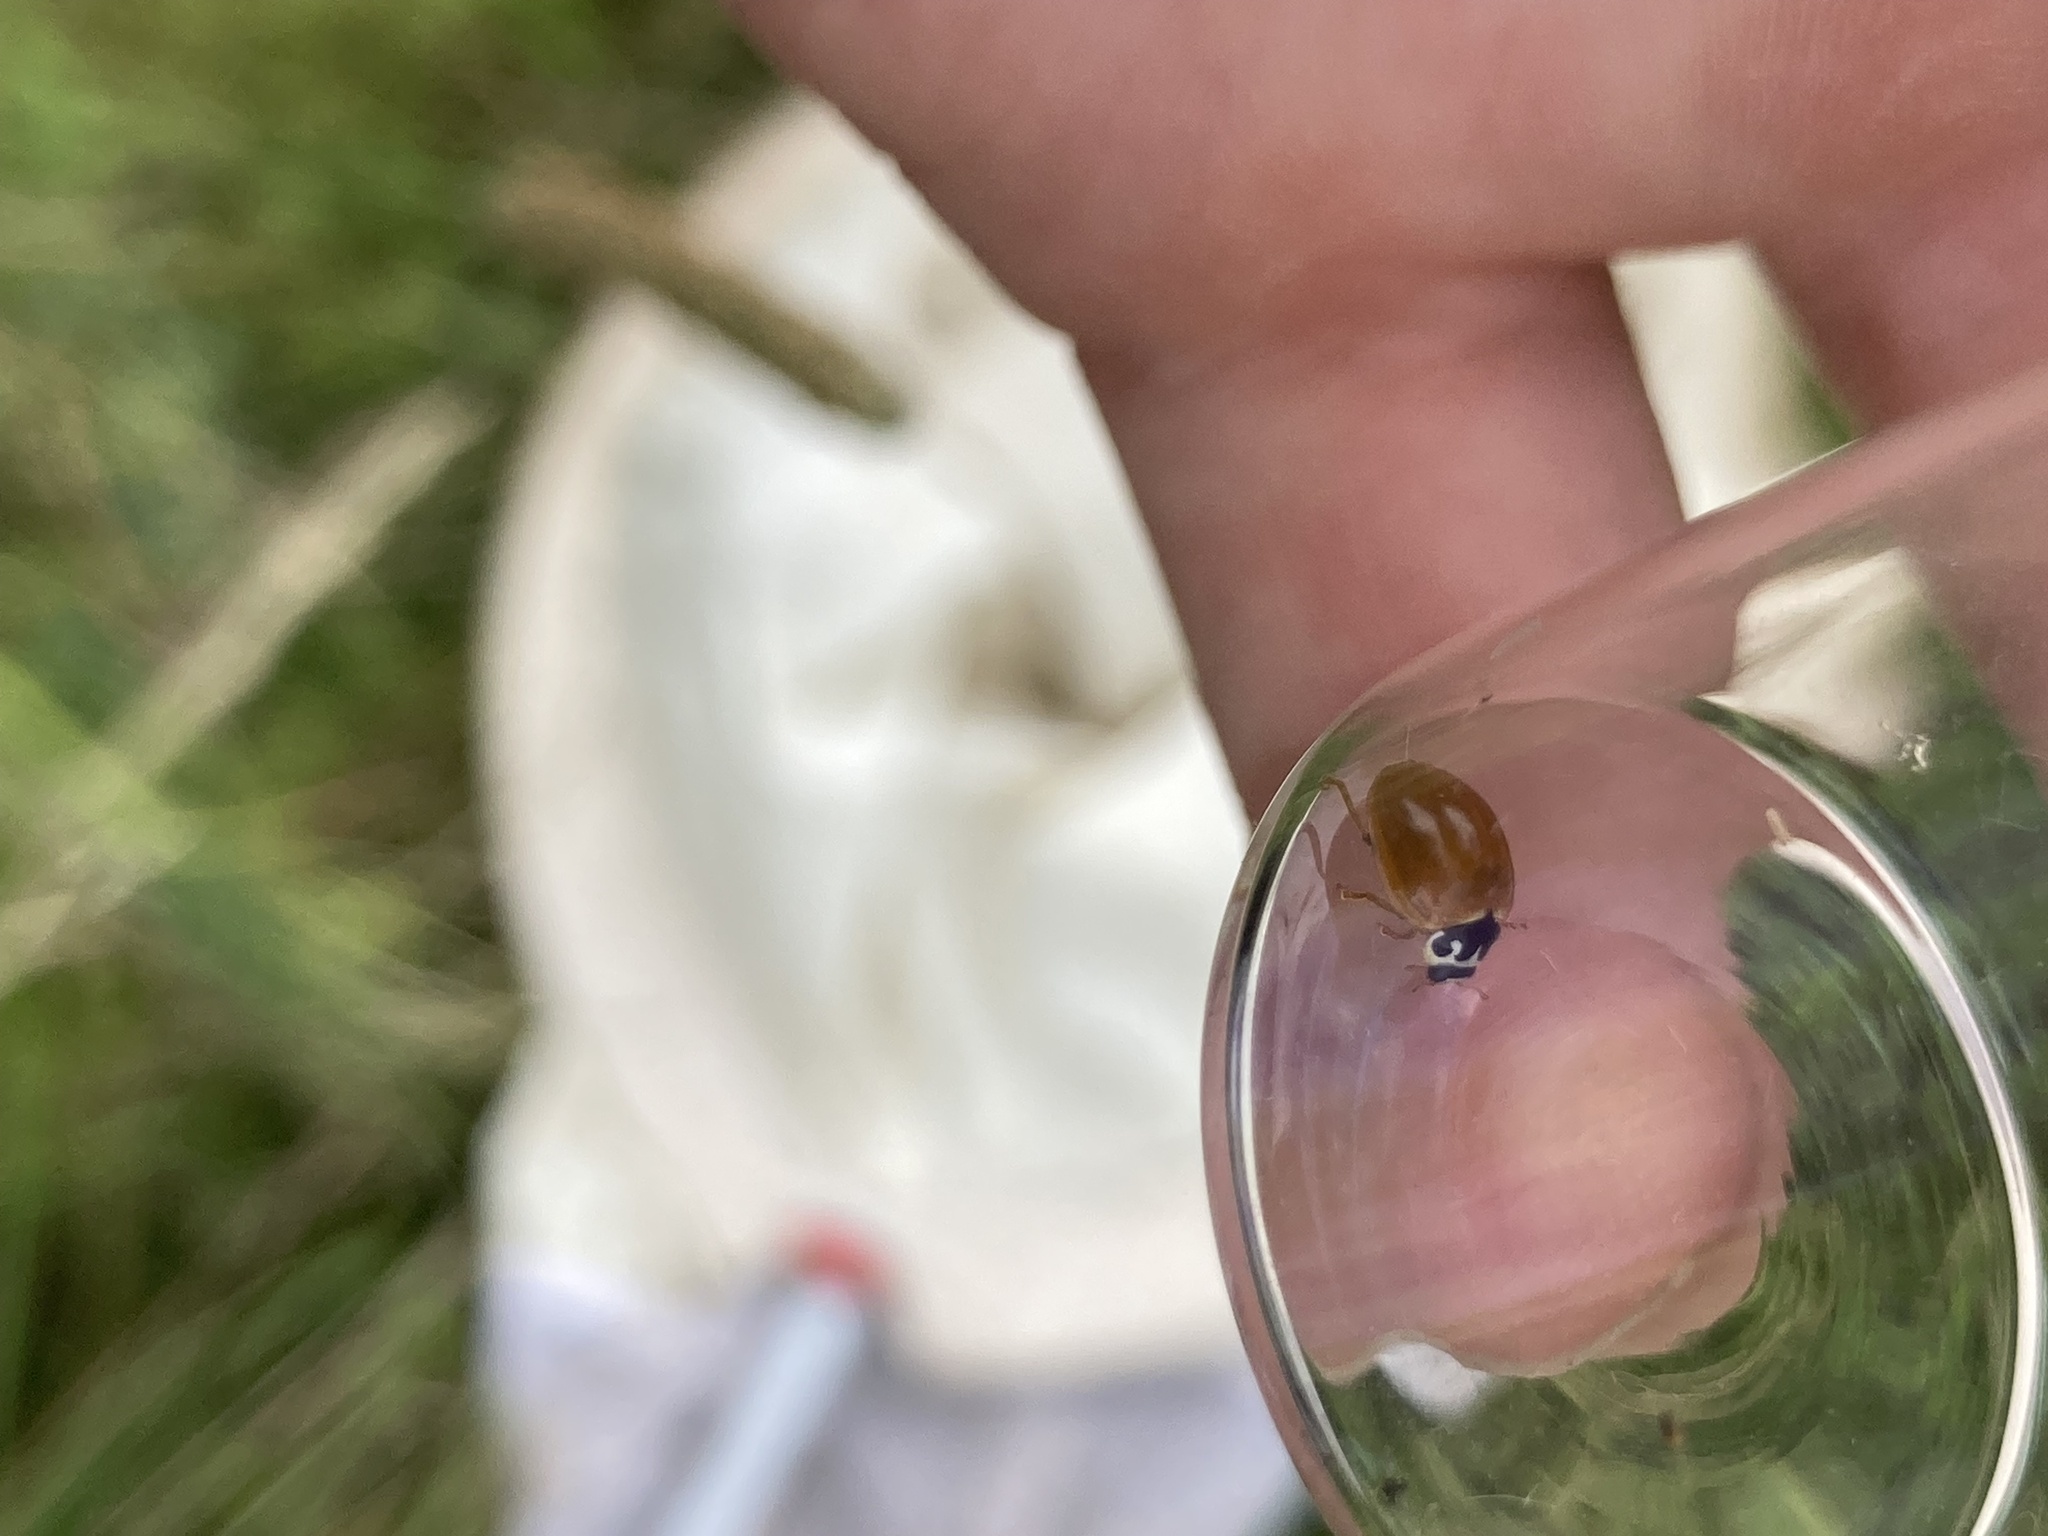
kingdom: Animalia
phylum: Arthropoda
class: Insecta
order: Coleoptera
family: Coccinellidae
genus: Cycloneda
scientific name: Cycloneda munda
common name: Polished lady beetle
